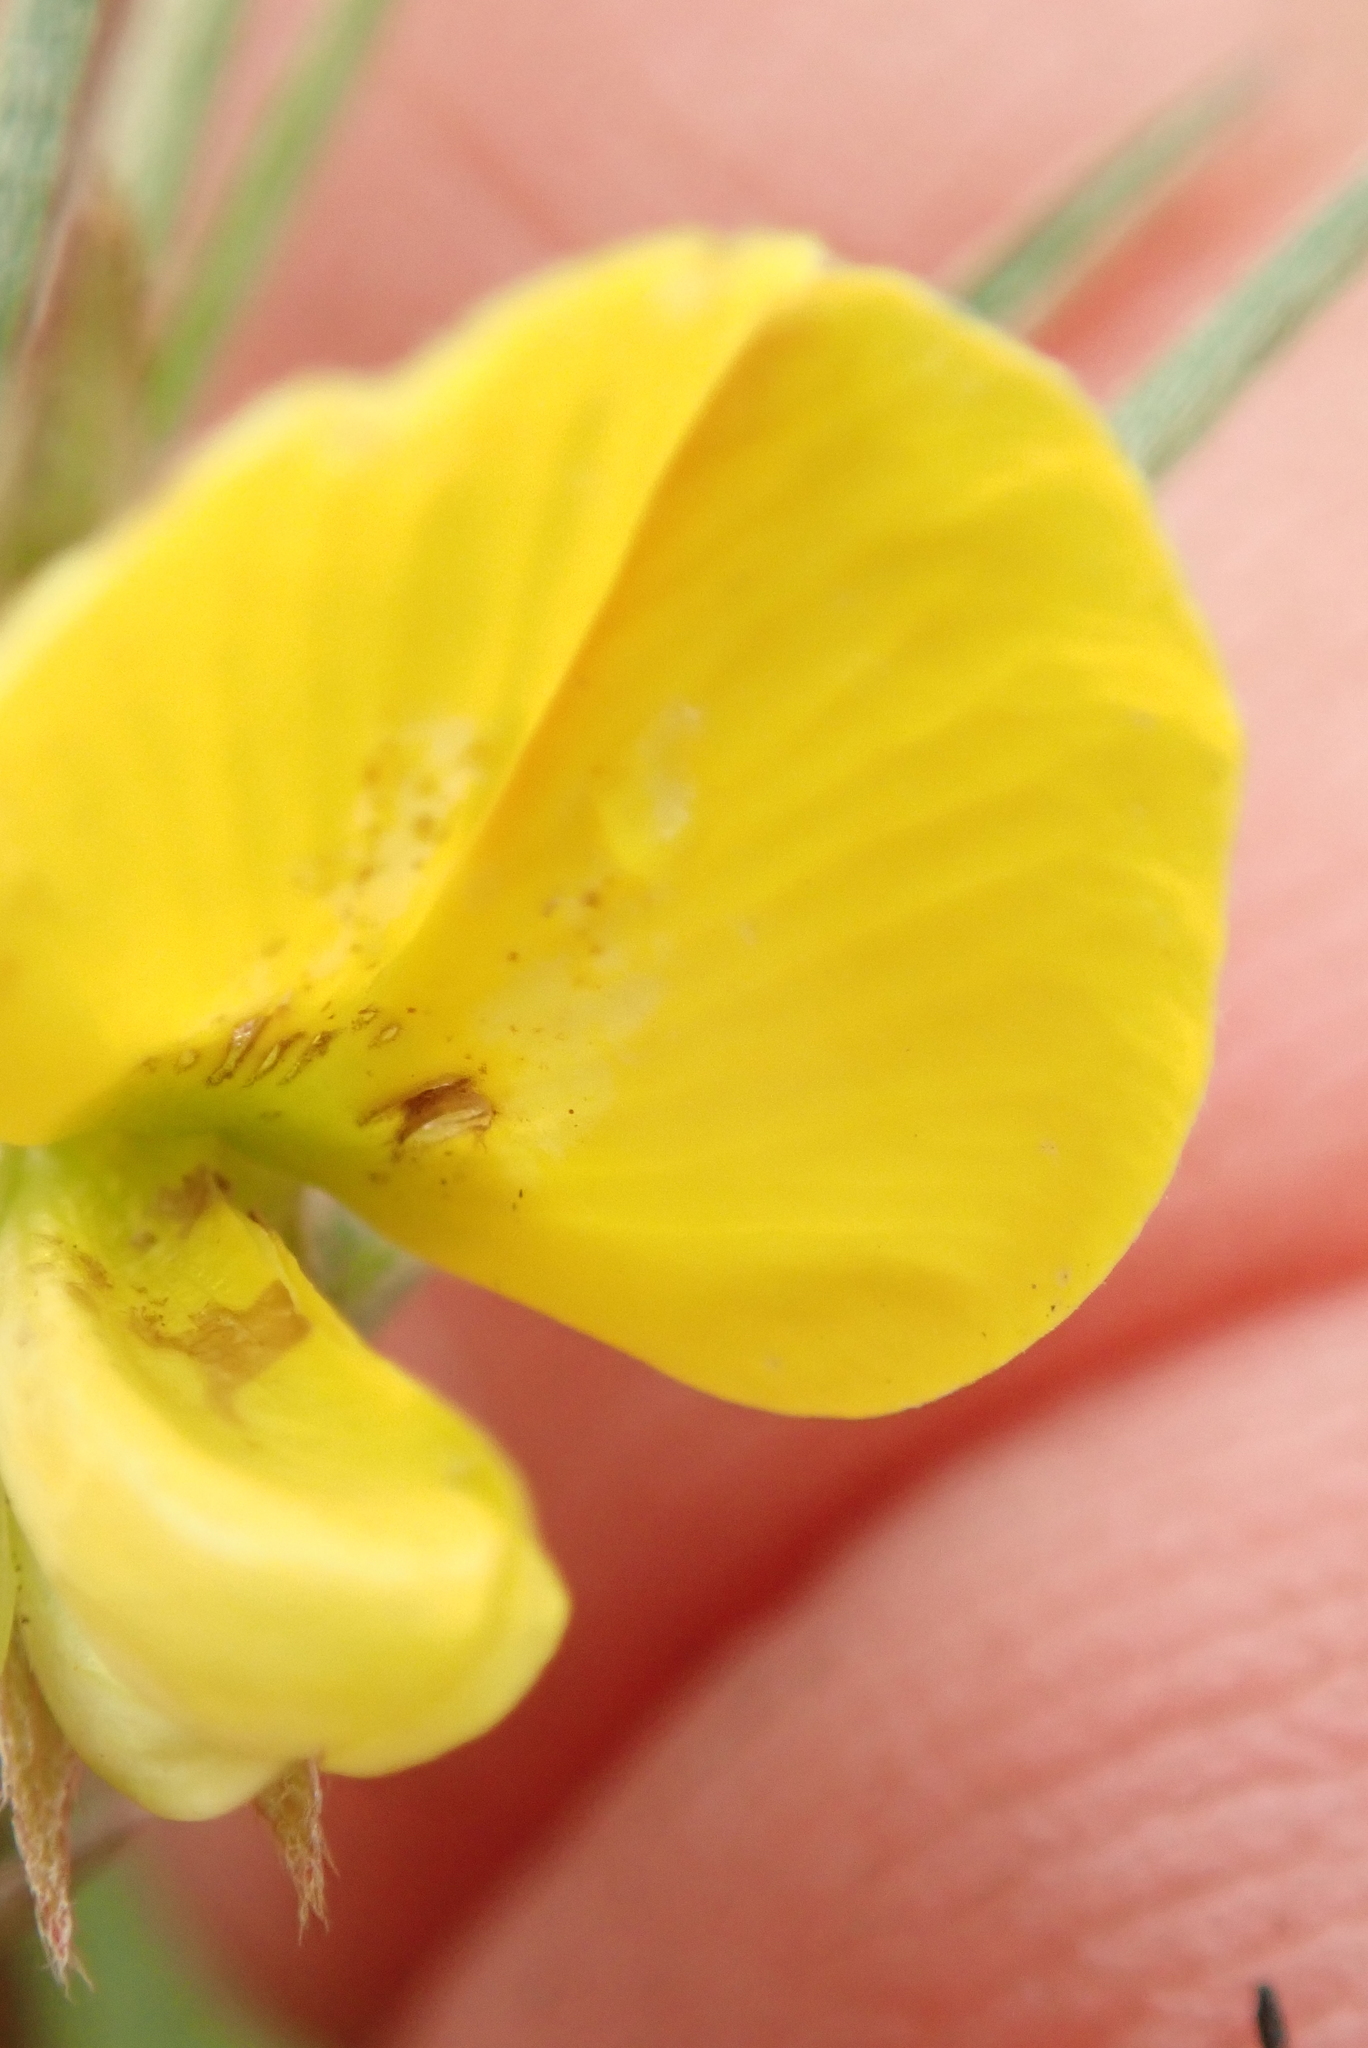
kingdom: Plantae
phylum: Tracheophyta
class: Magnoliopsida
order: Fabales
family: Fabaceae
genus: Argyrolobium
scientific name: Argyrolobium tuberosum
